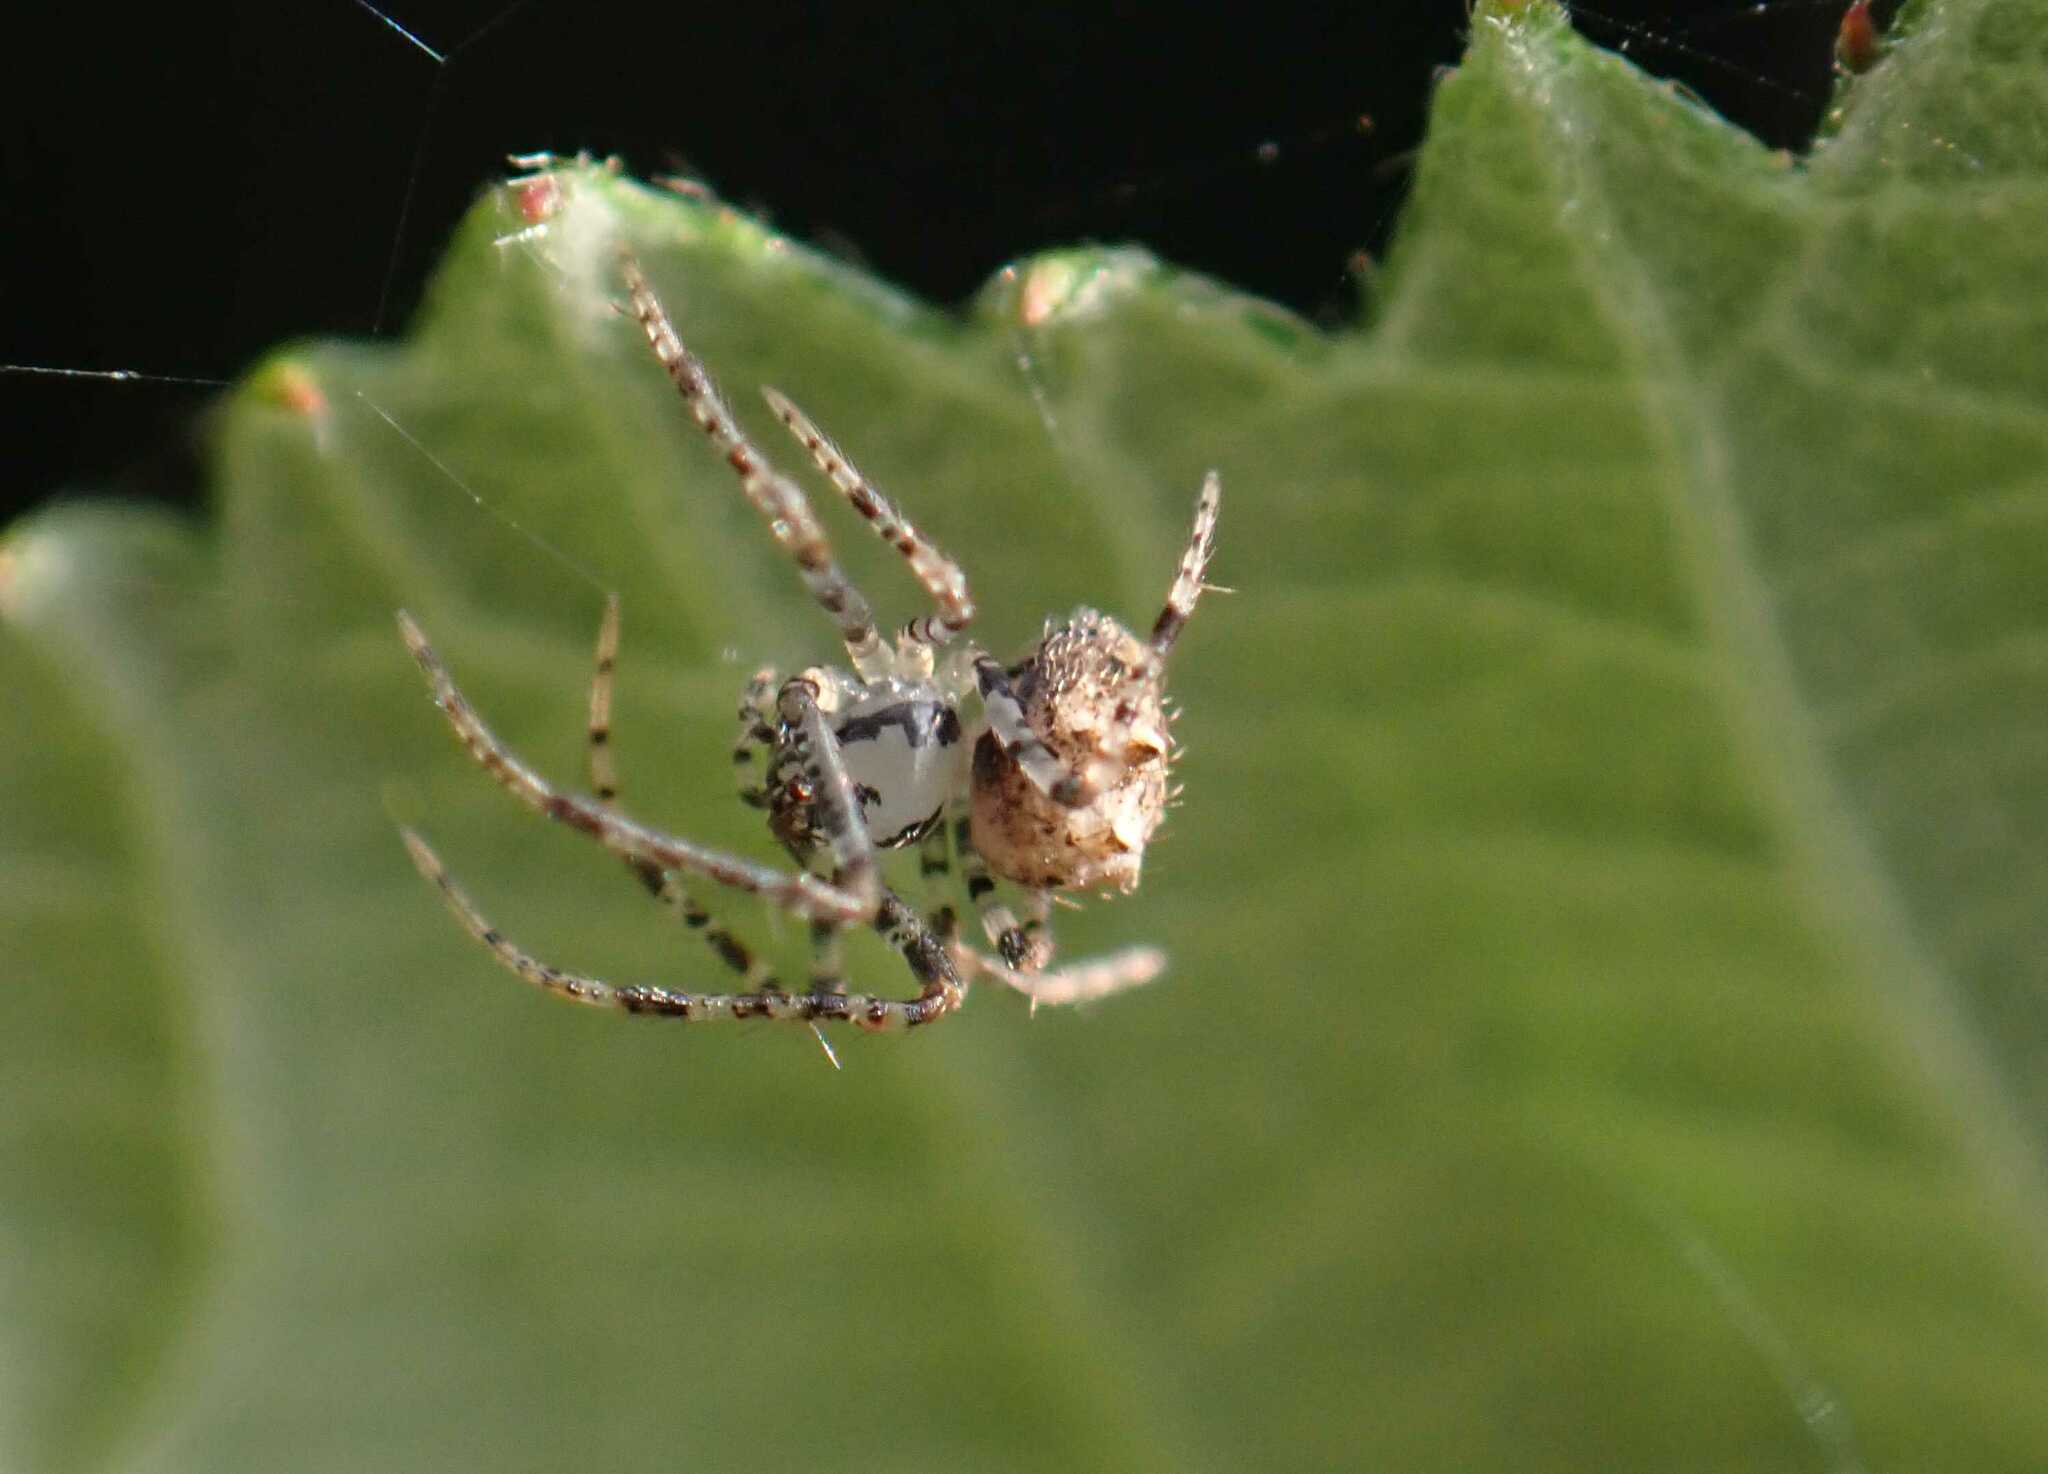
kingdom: Animalia
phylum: Arthropoda
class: Arachnida
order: Araneae
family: Mimetidae
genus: Ero
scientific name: Ero aphana
